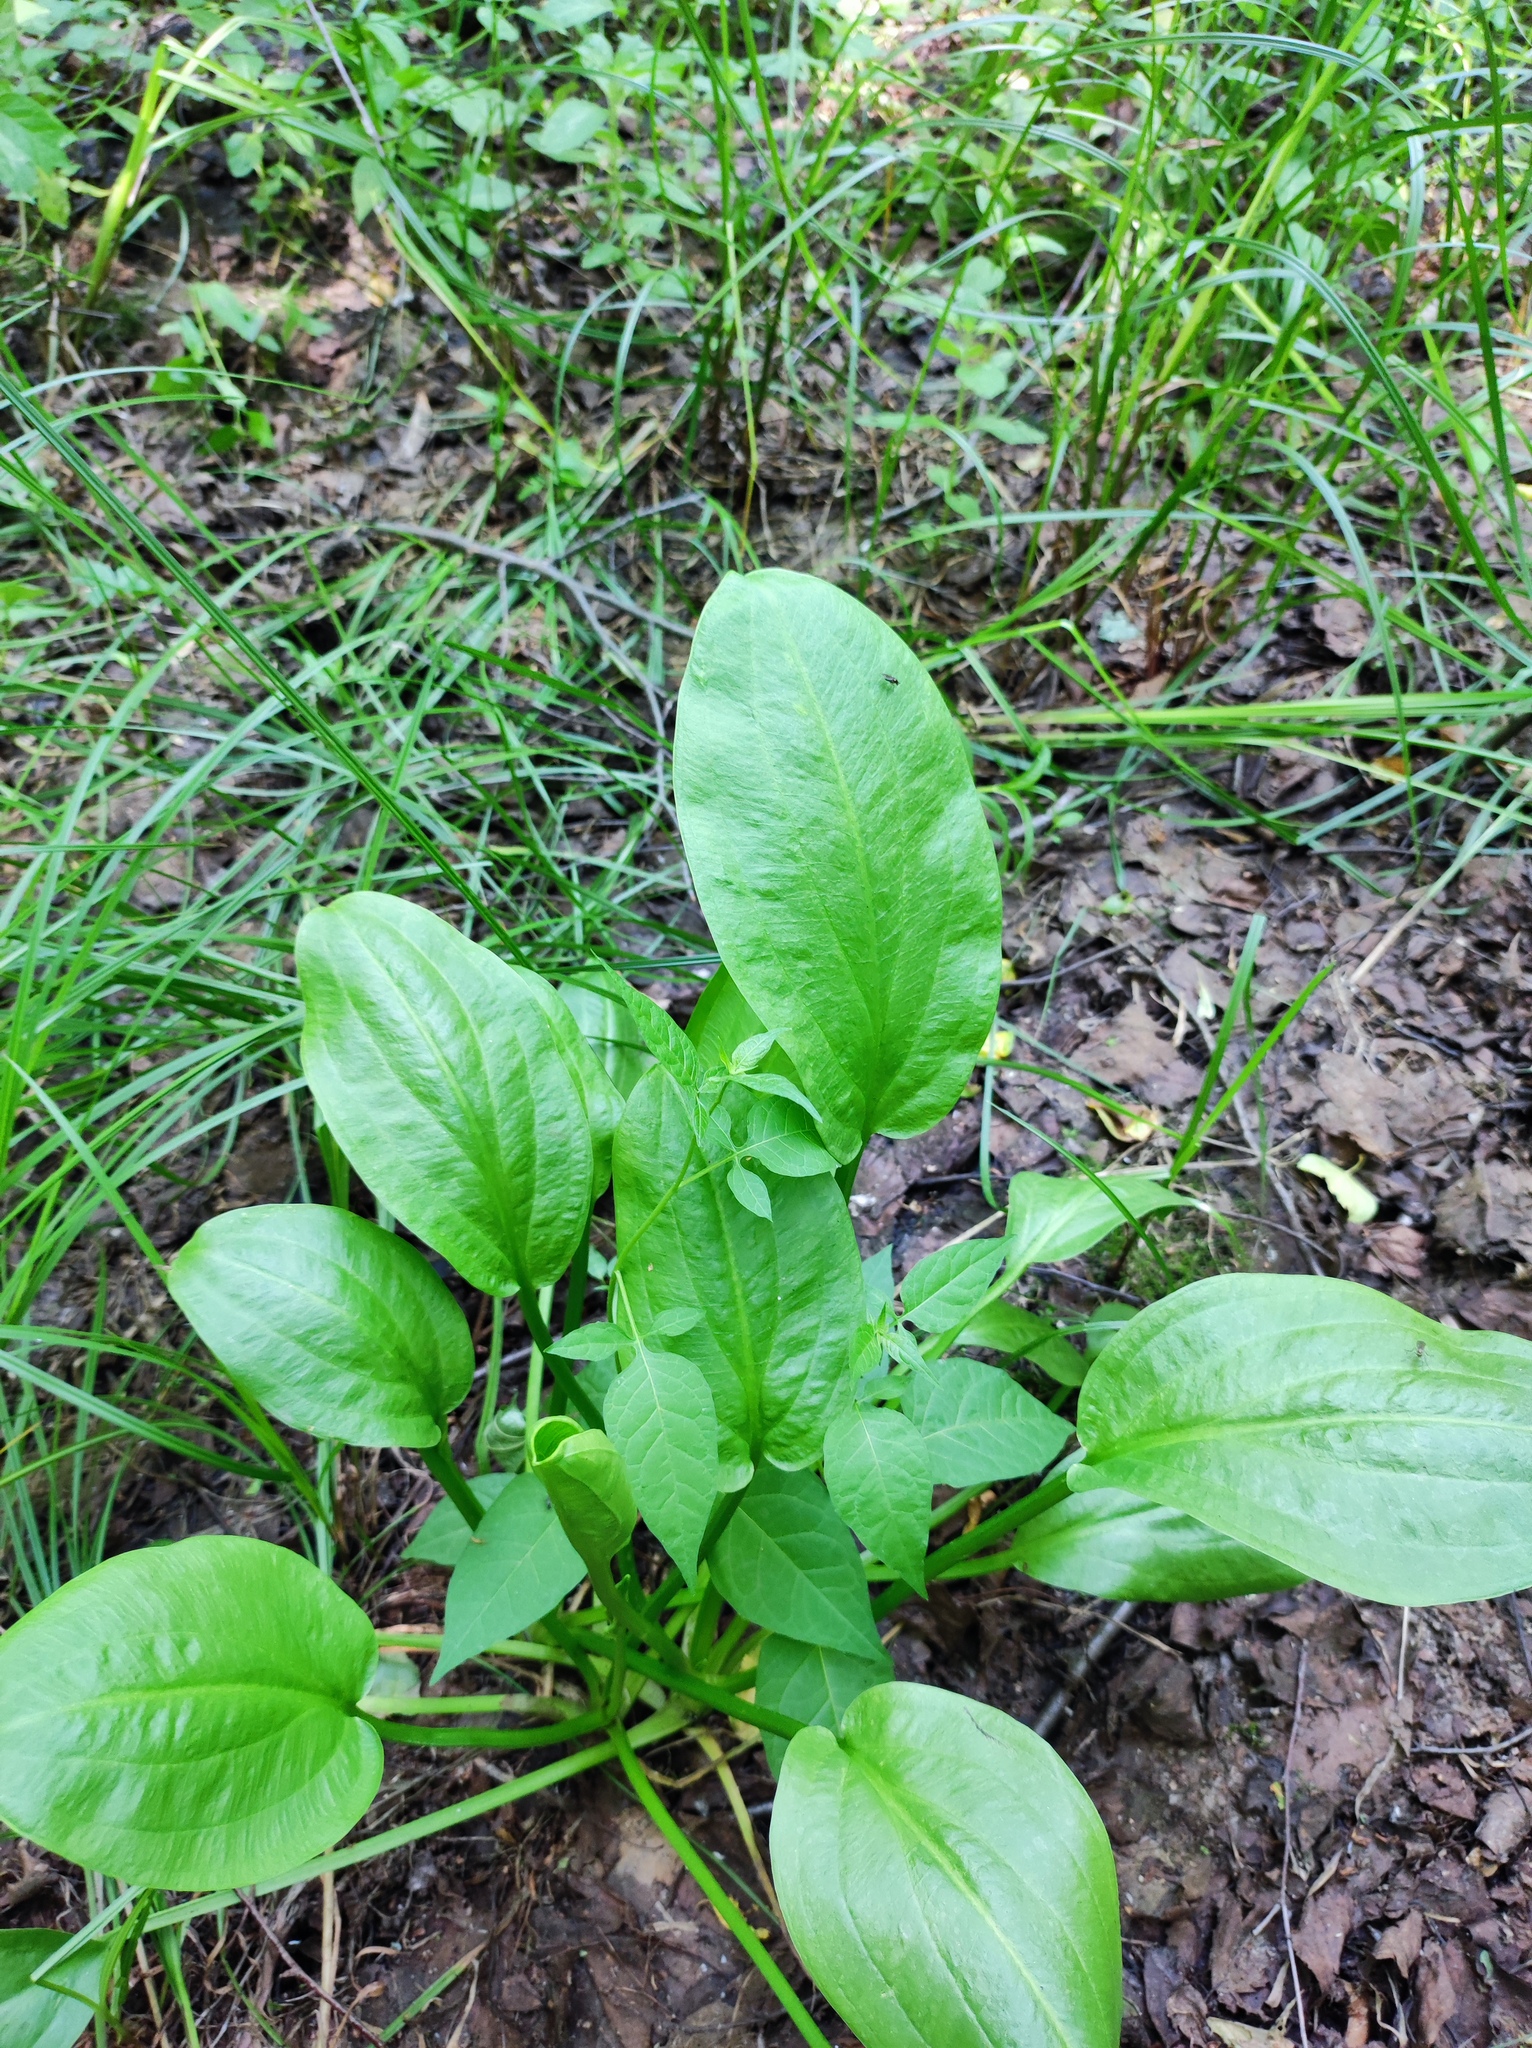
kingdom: Plantae
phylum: Tracheophyta
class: Liliopsida
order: Alismatales
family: Alismataceae
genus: Alisma
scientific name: Alisma plantago-aquatica
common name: Water-plantain
